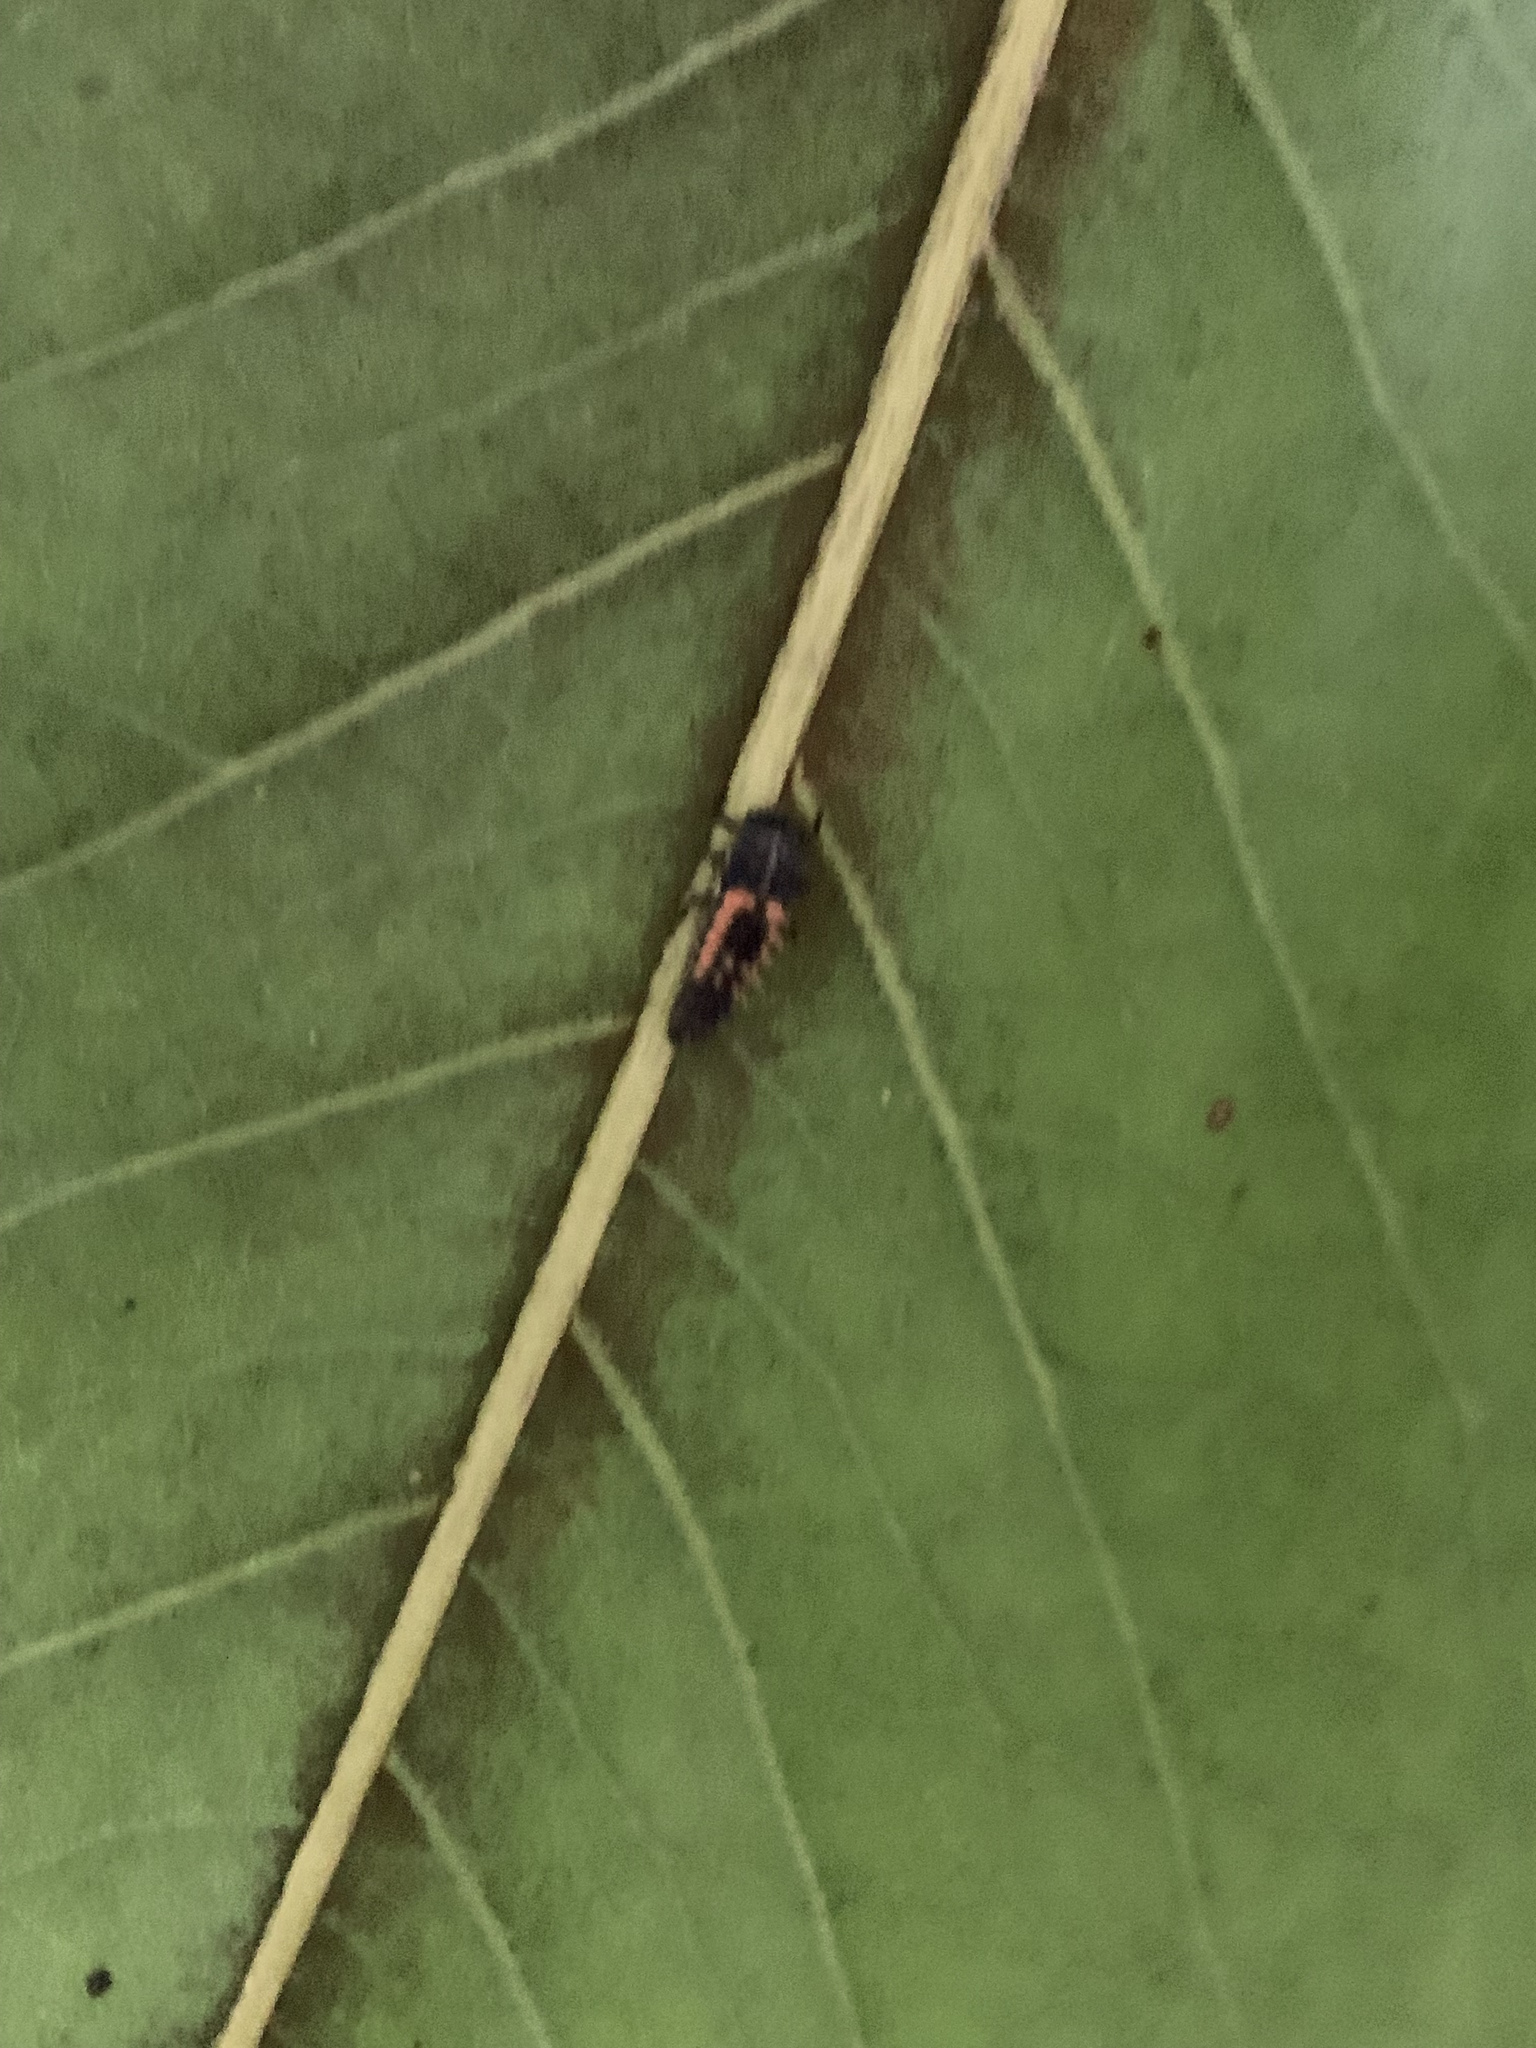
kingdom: Animalia
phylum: Arthropoda
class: Insecta
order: Coleoptera
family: Coccinellidae
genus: Harmonia
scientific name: Harmonia axyridis
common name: Harlequin ladybird
